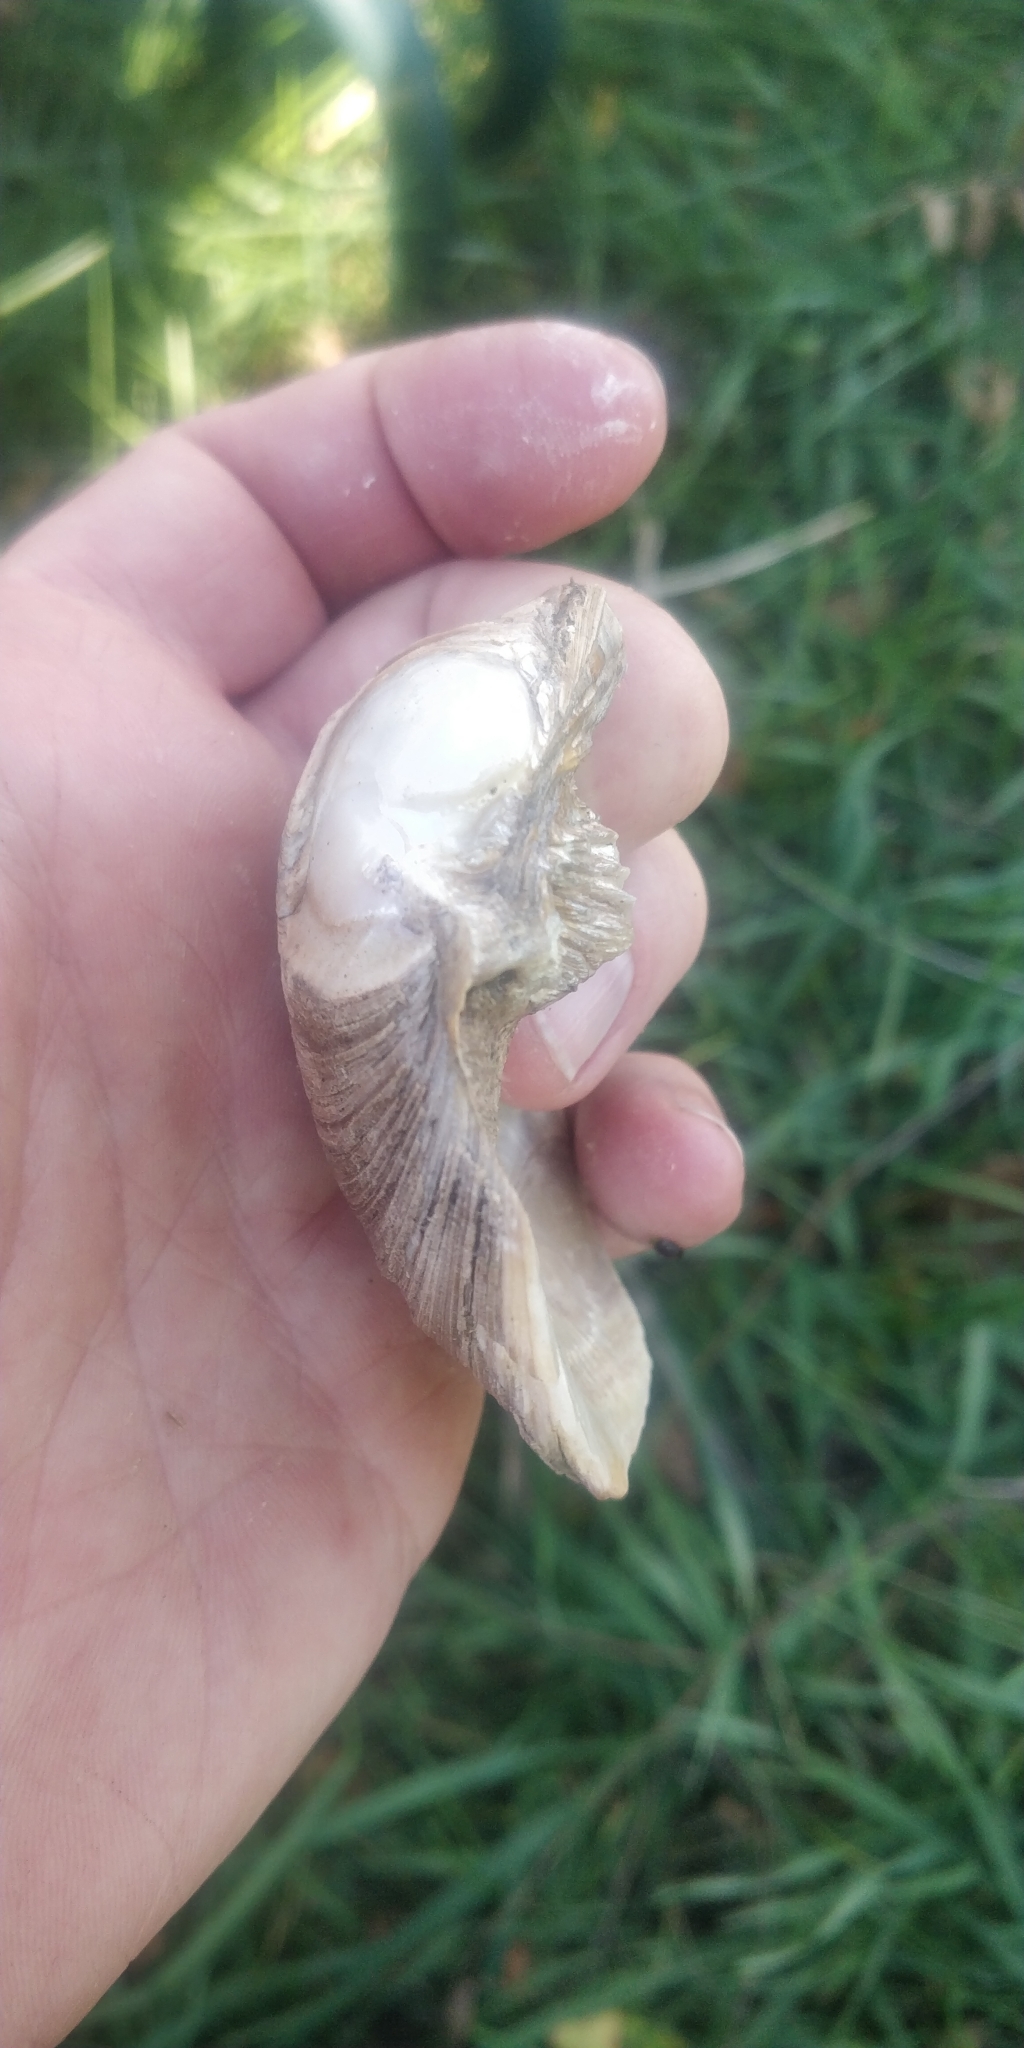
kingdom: Animalia
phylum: Mollusca
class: Bivalvia
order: Unionida
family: Unionidae
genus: Amblema
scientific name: Amblema plicata
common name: Threeridge
